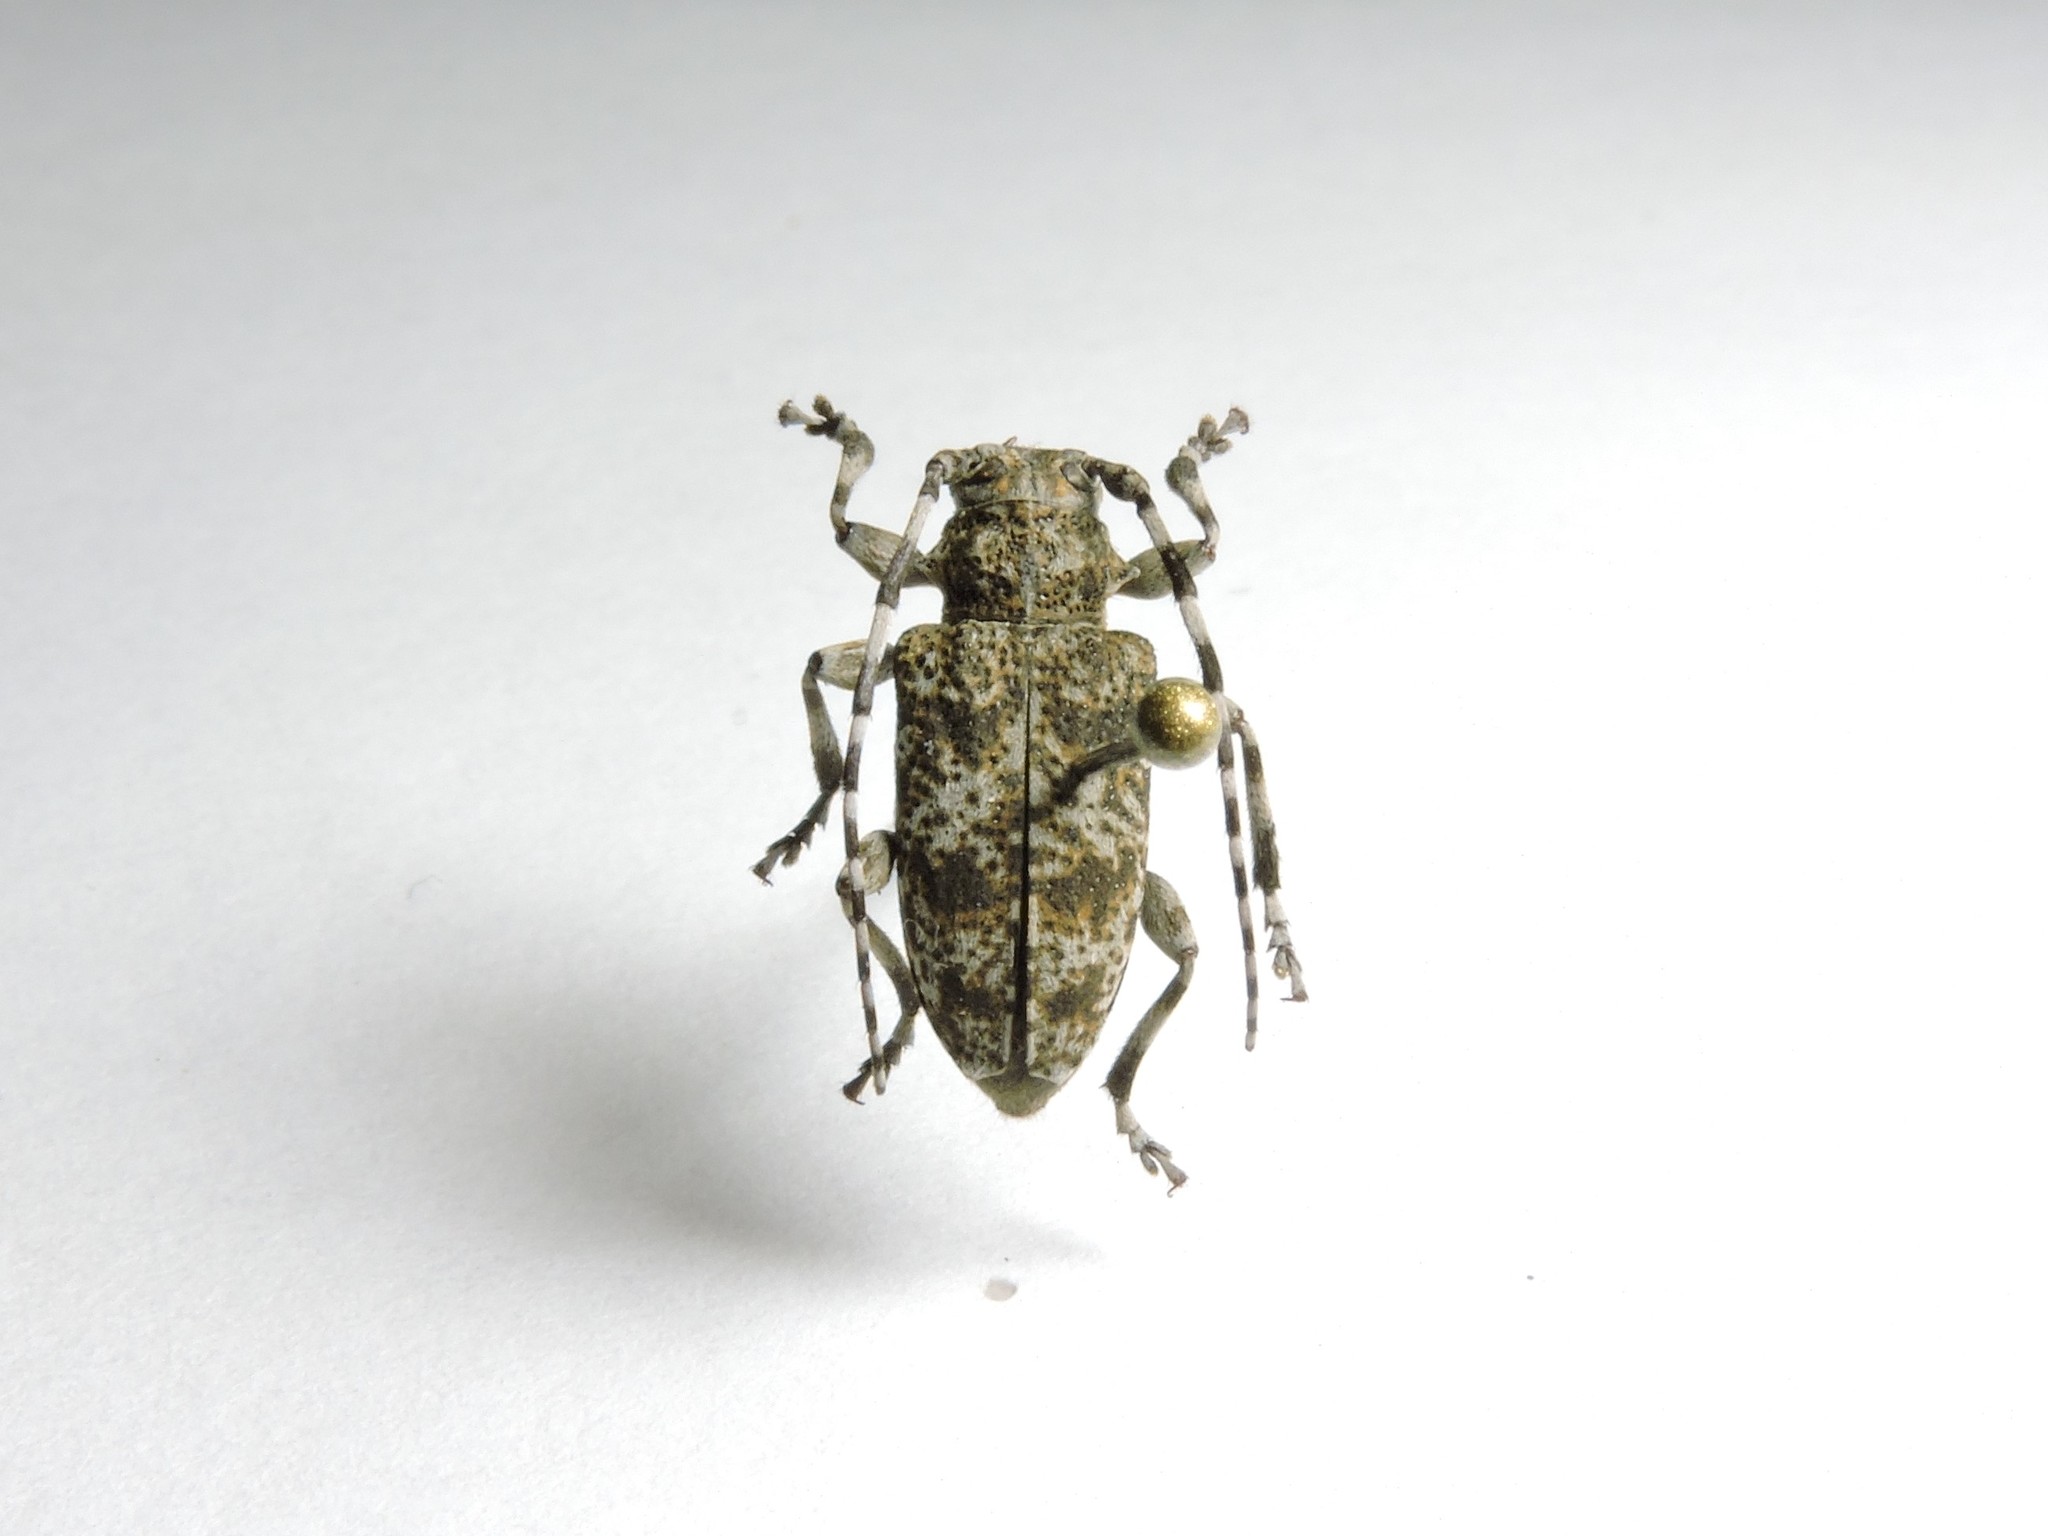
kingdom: Animalia
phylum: Arthropoda
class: Insecta
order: Coleoptera
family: Cerambycidae
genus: Aegomorphus
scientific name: Aegomorphus clavipes
